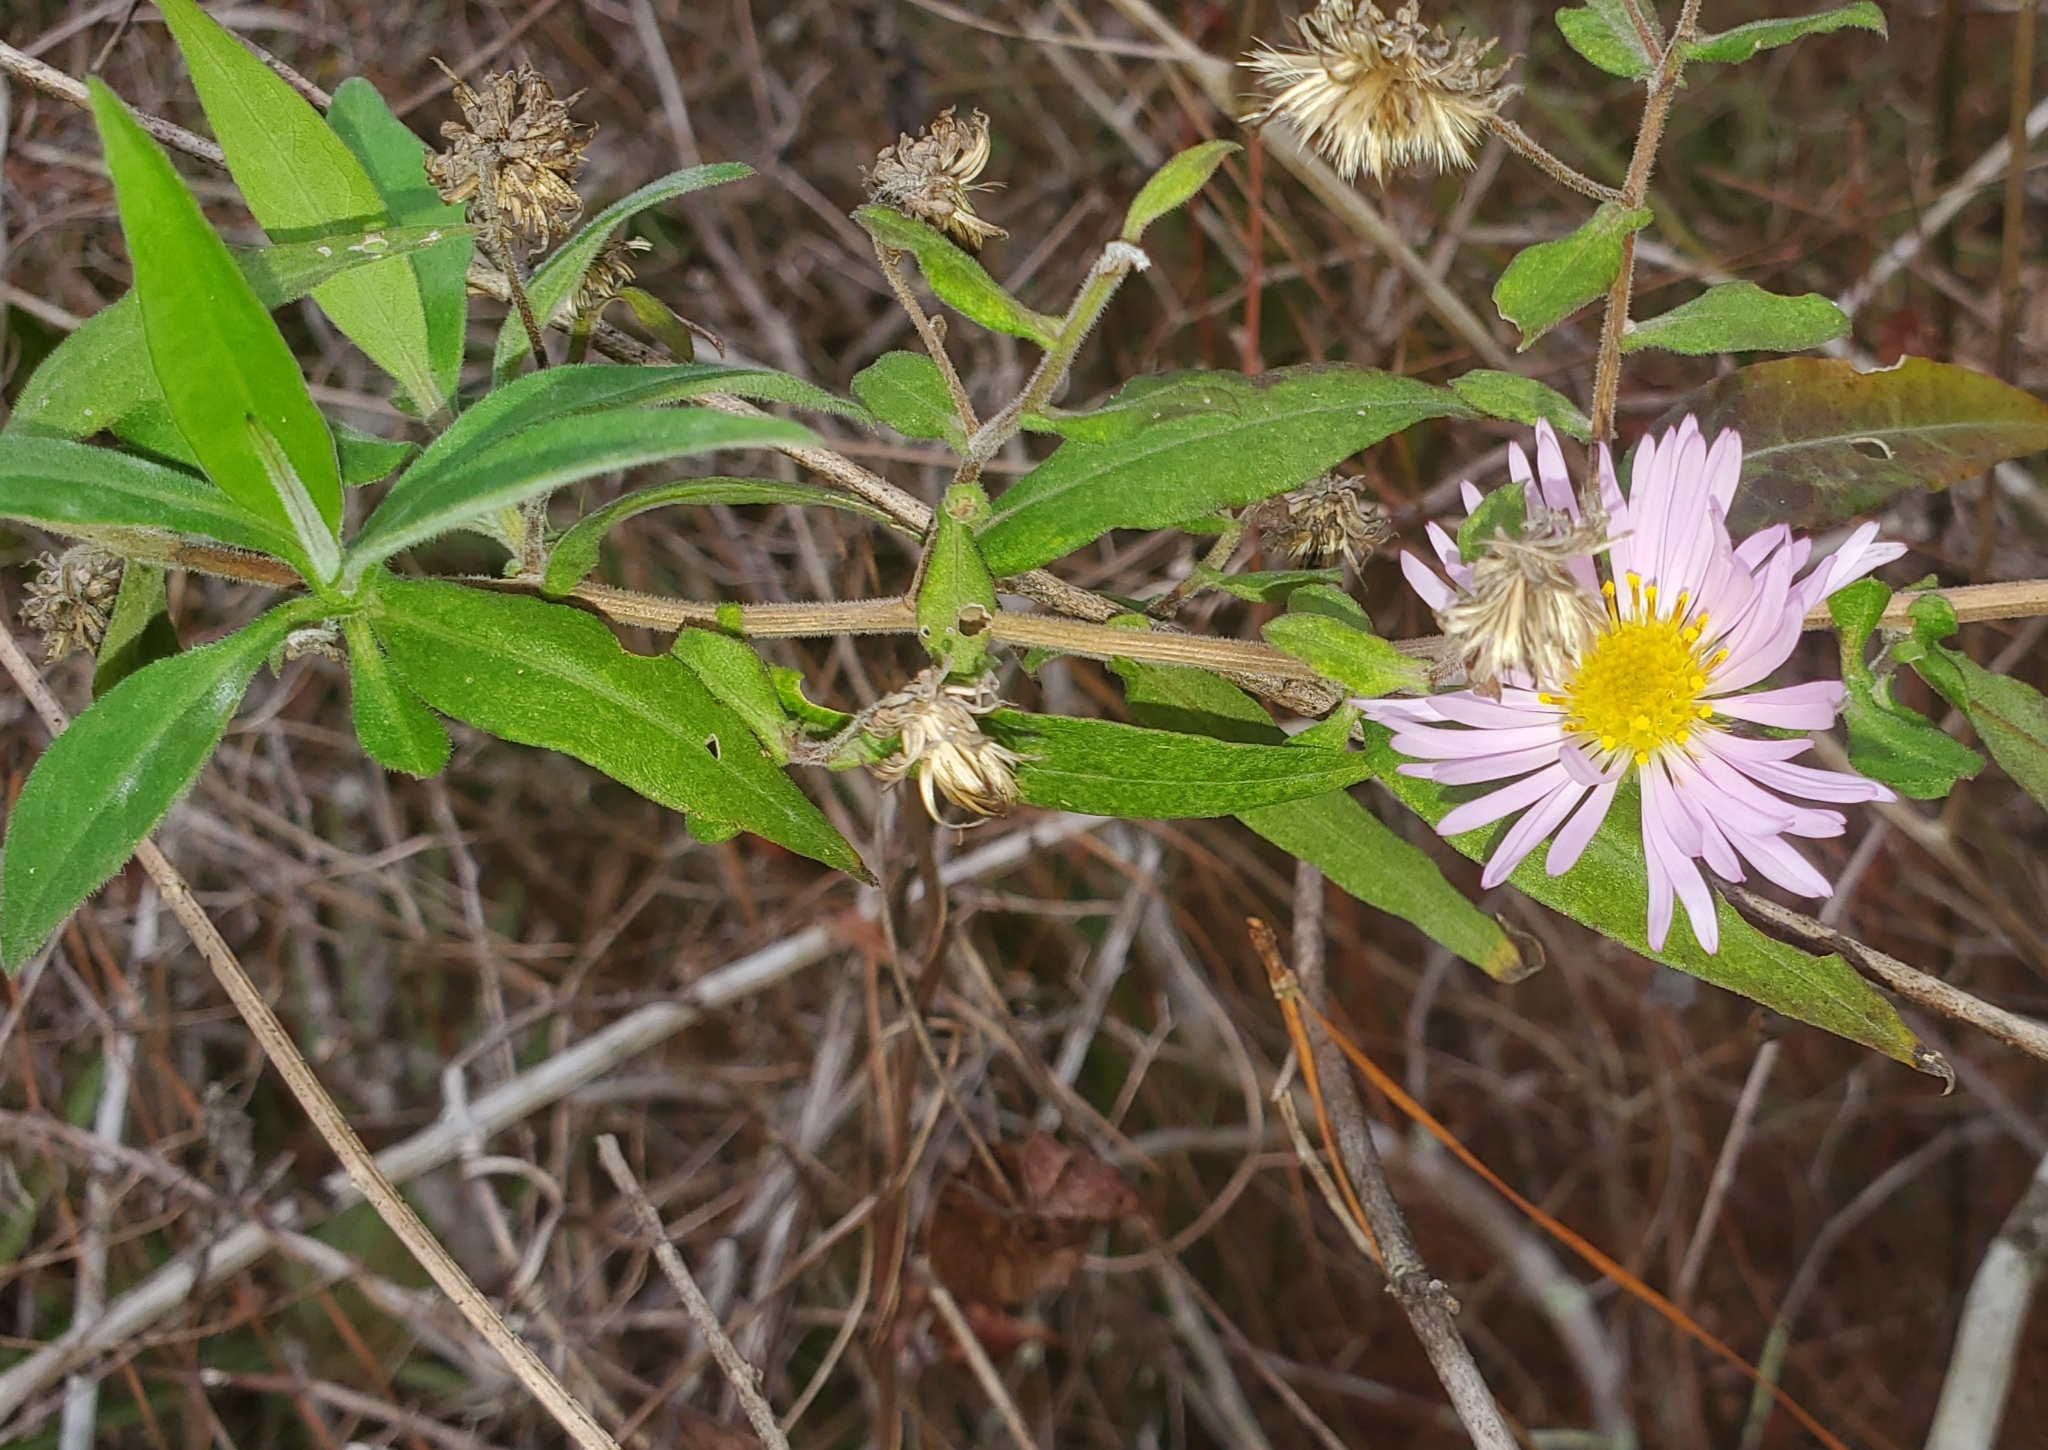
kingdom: Plantae
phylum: Tracheophyta
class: Magnoliopsida
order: Asterales
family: Asteraceae
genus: Ampelaster
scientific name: Ampelaster carolinianus
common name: Climbing aster
